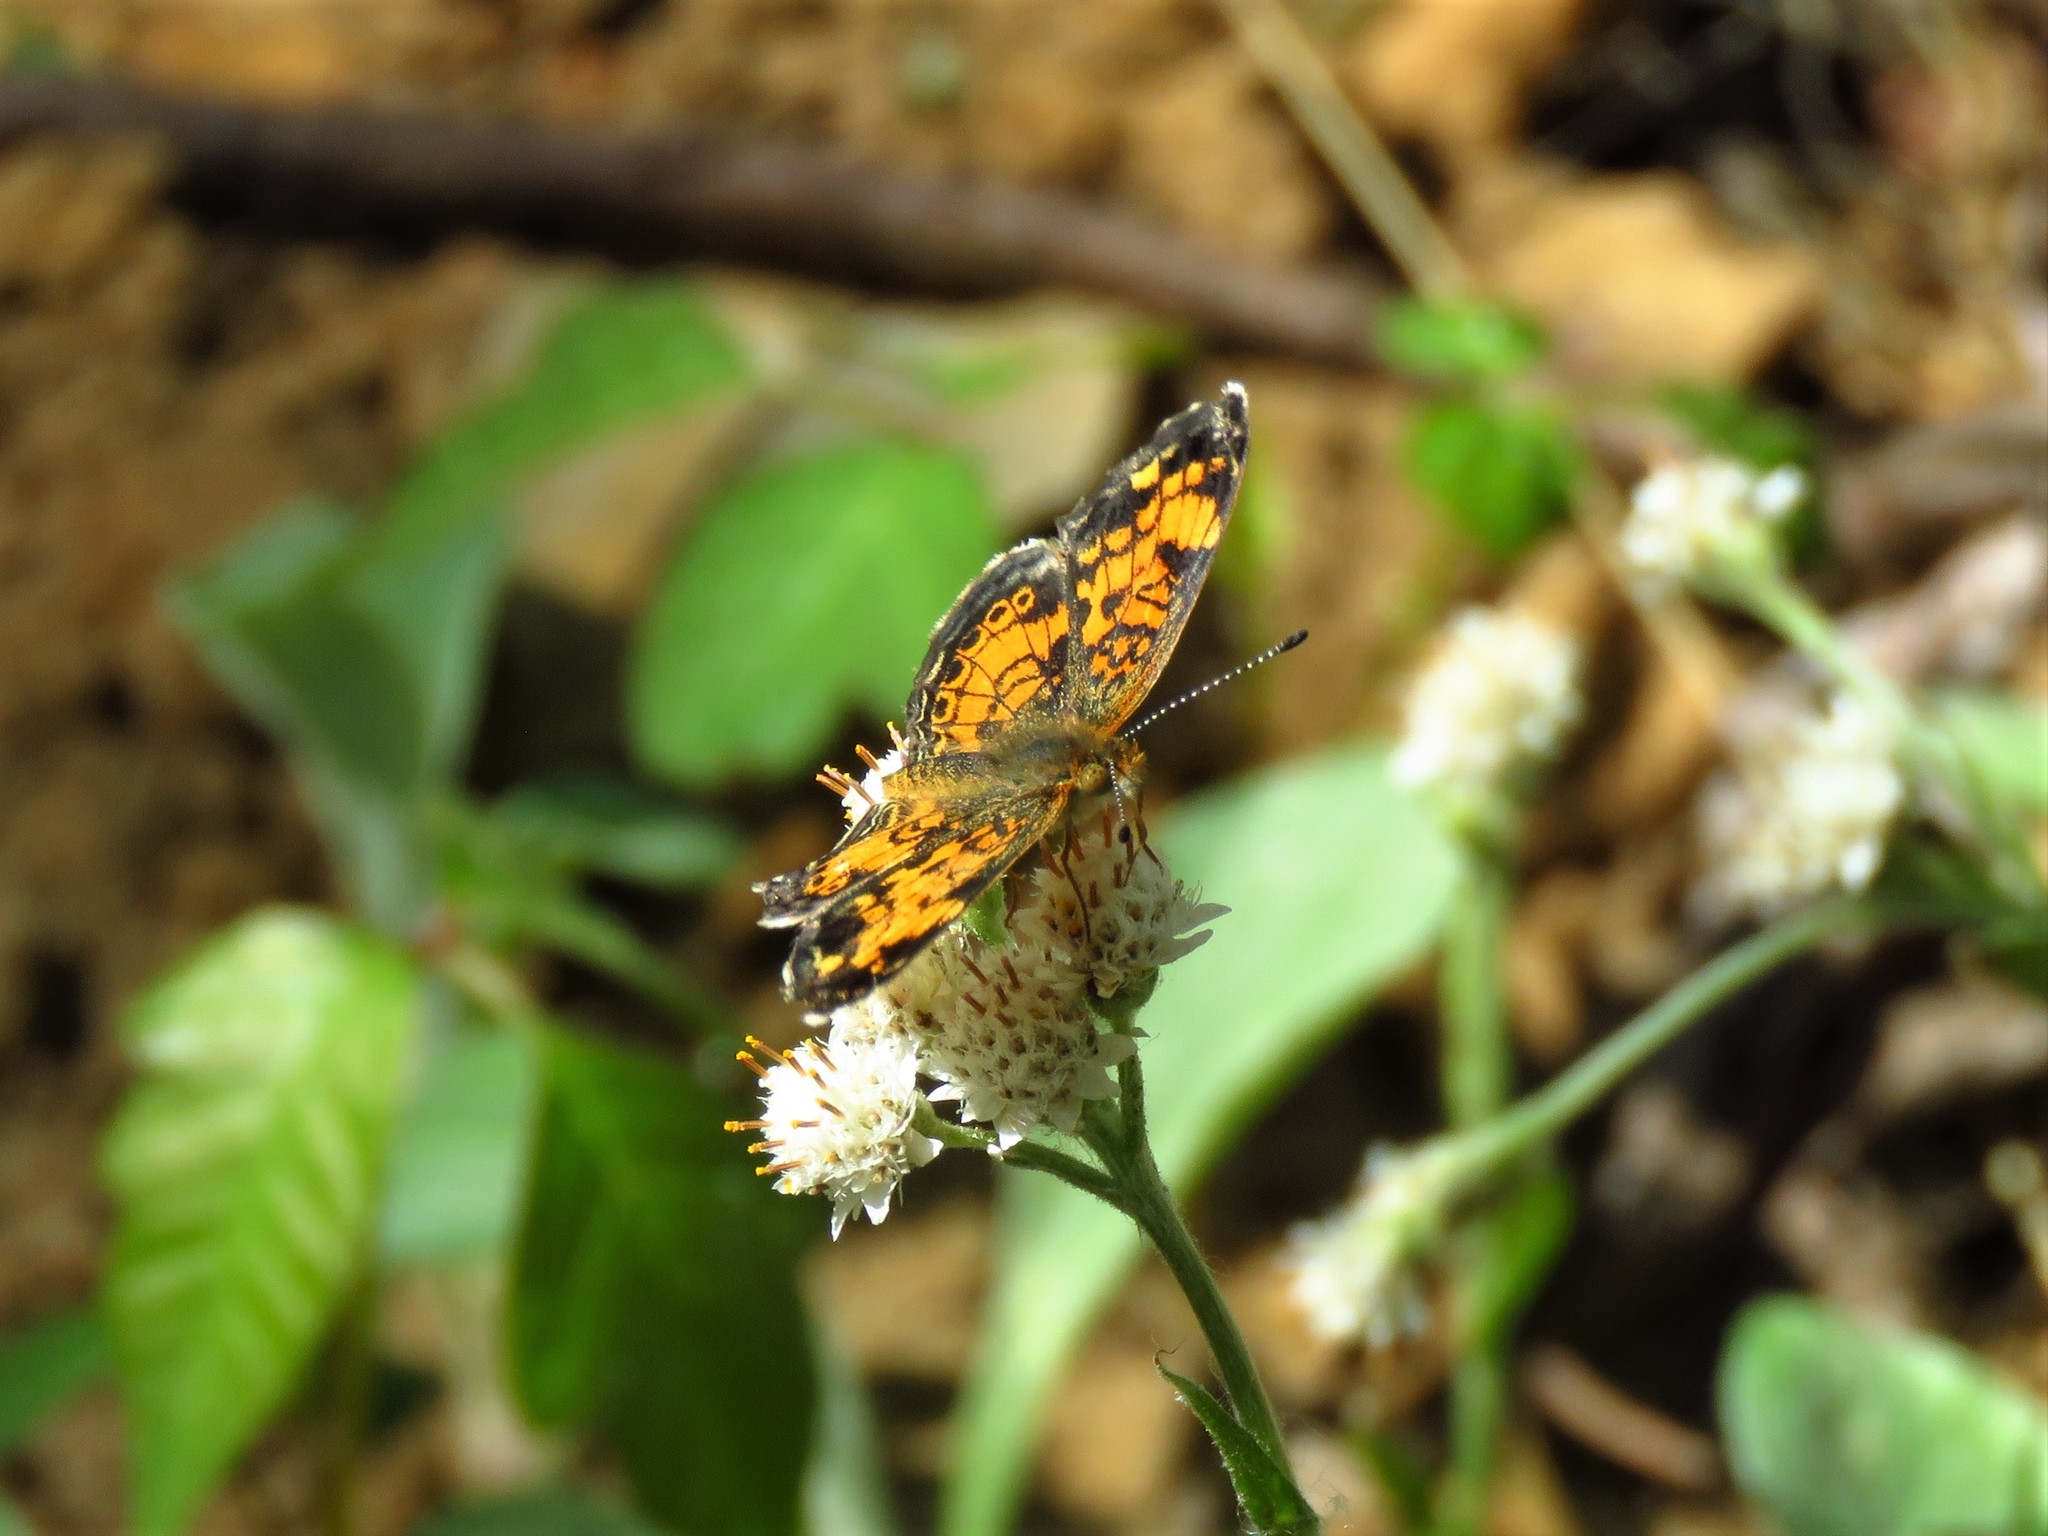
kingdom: Animalia
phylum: Arthropoda
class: Insecta
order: Lepidoptera
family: Nymphalidae
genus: Phyciodes
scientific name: Phyciodes tharos
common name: Pearl crescent
